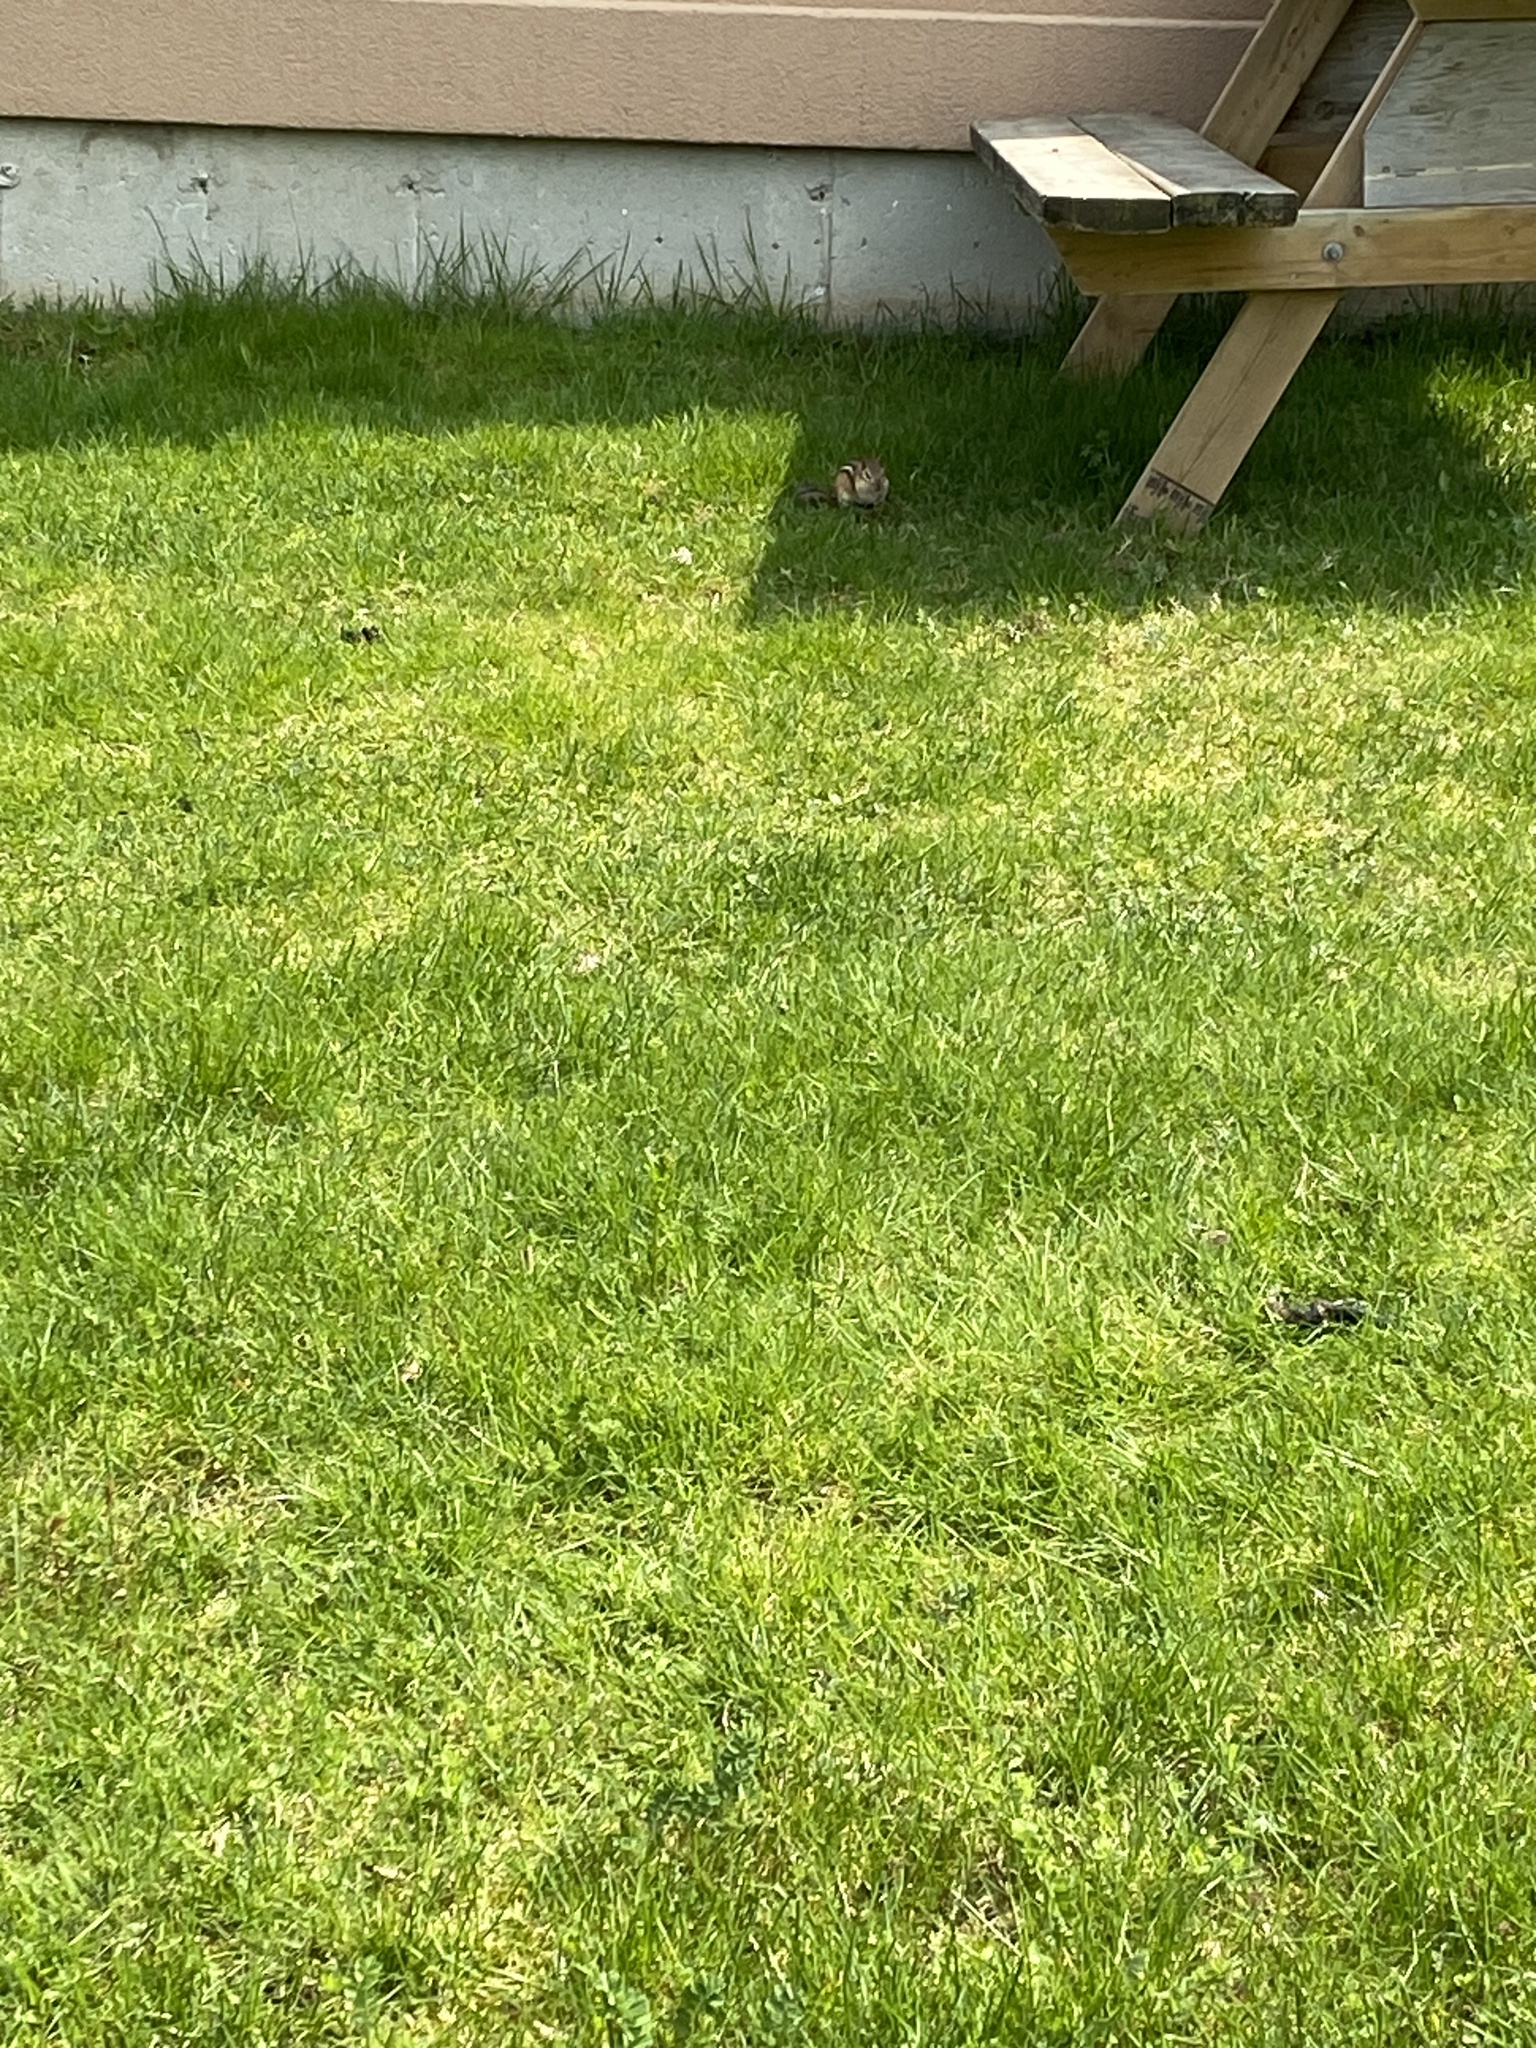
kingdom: Animalia
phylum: Chordata
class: Mammalia
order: Rodentia
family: Sciuridae
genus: Tamias
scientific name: Tamias striatus
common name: Eastern chipmunk
